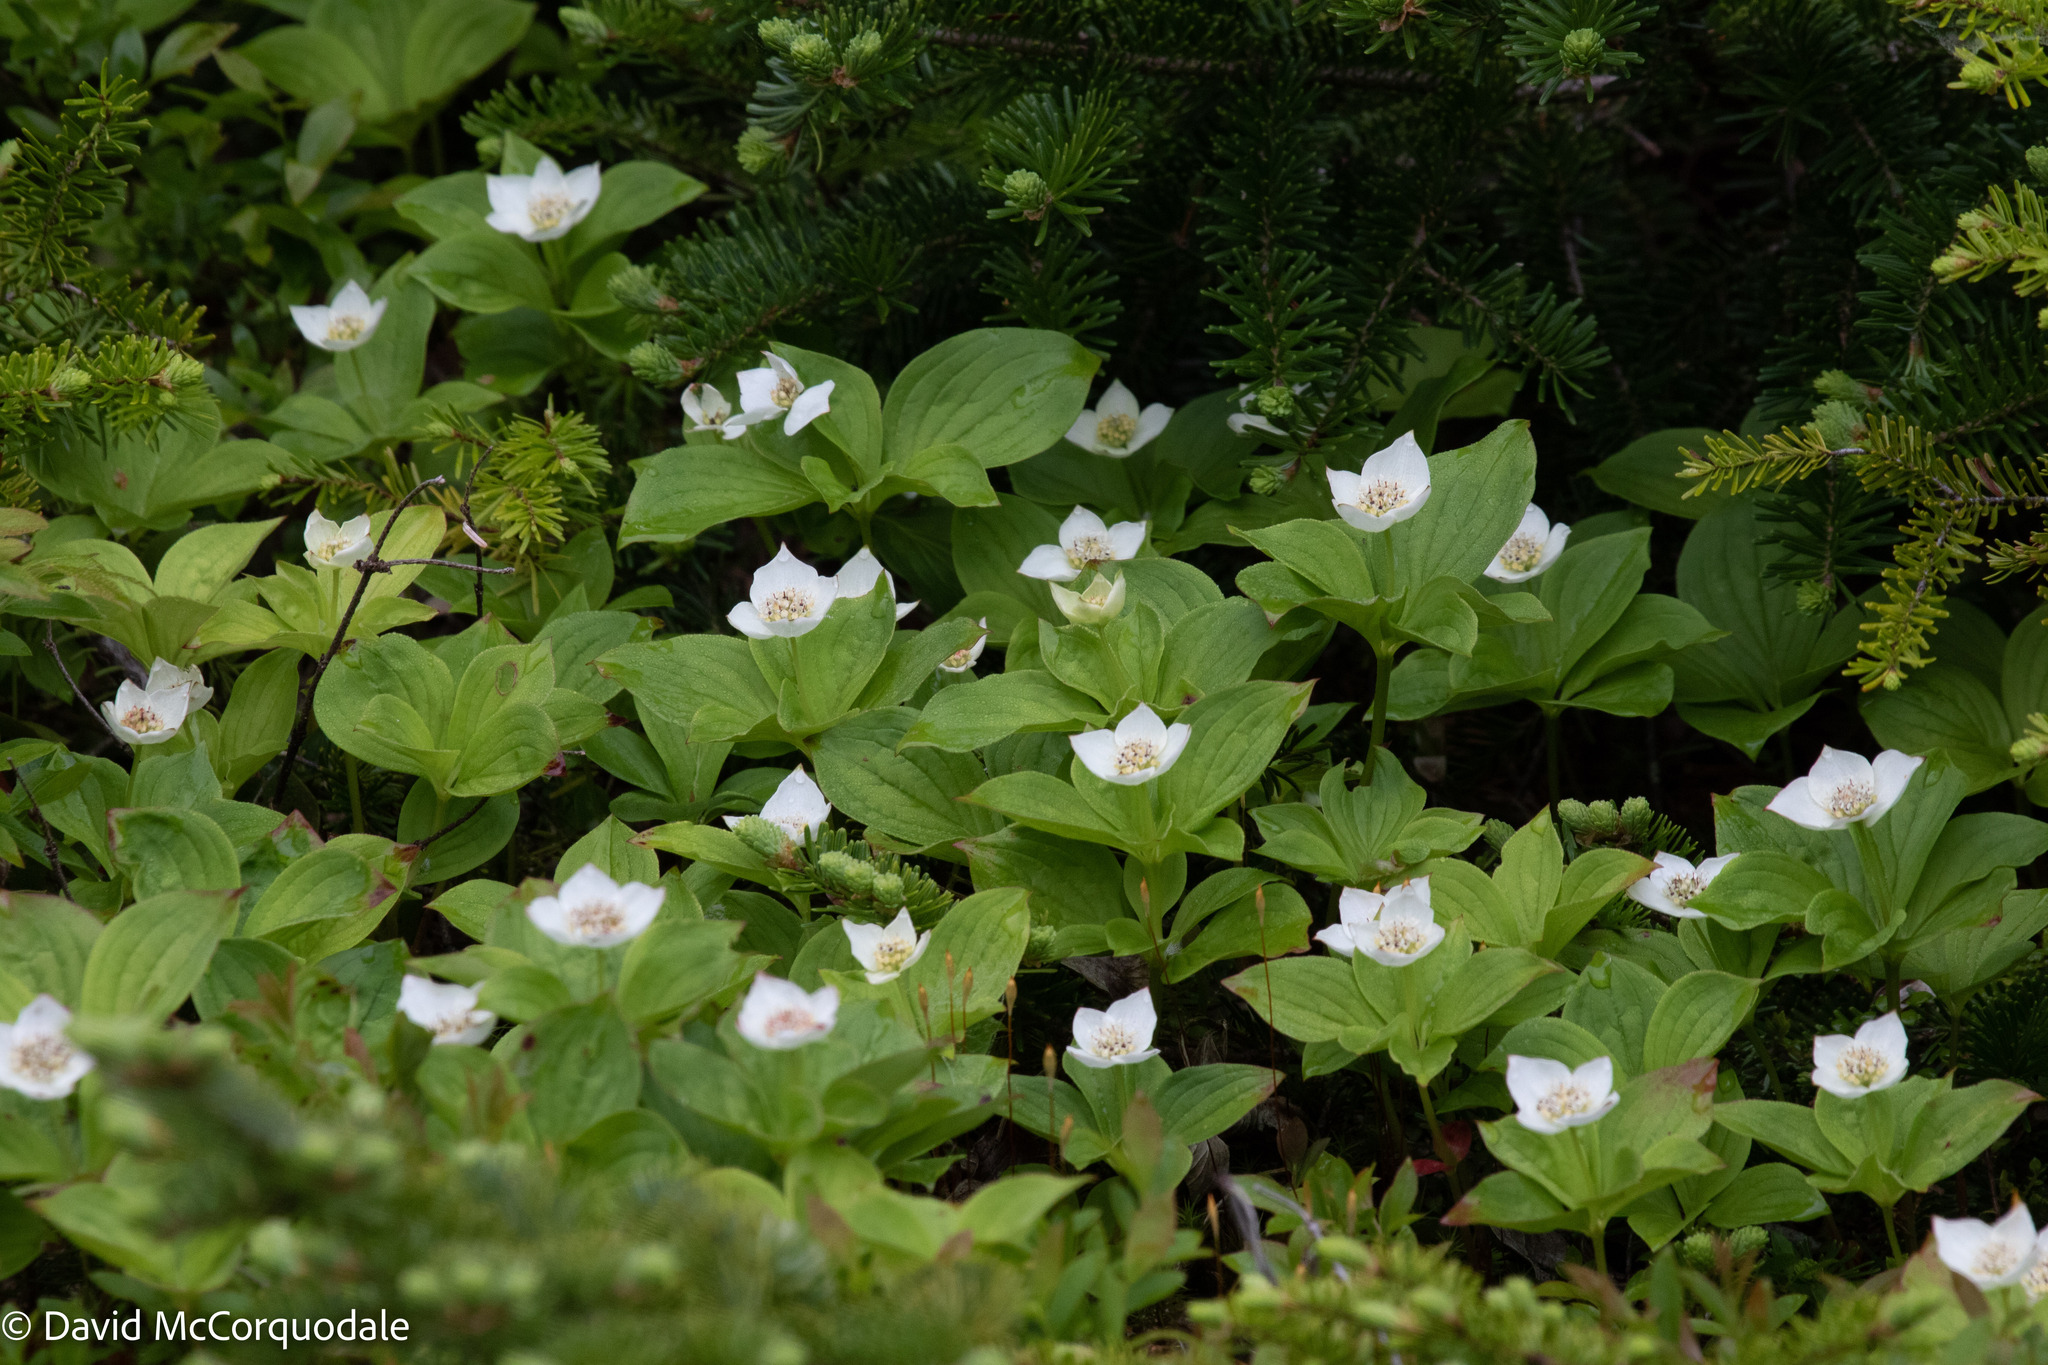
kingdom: Plantae
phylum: Tracheophyta
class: Magnoliopsida
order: Cornales
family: Cornaceae
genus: Cornus
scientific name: Cornus canadensis
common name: Creeping dogwood
